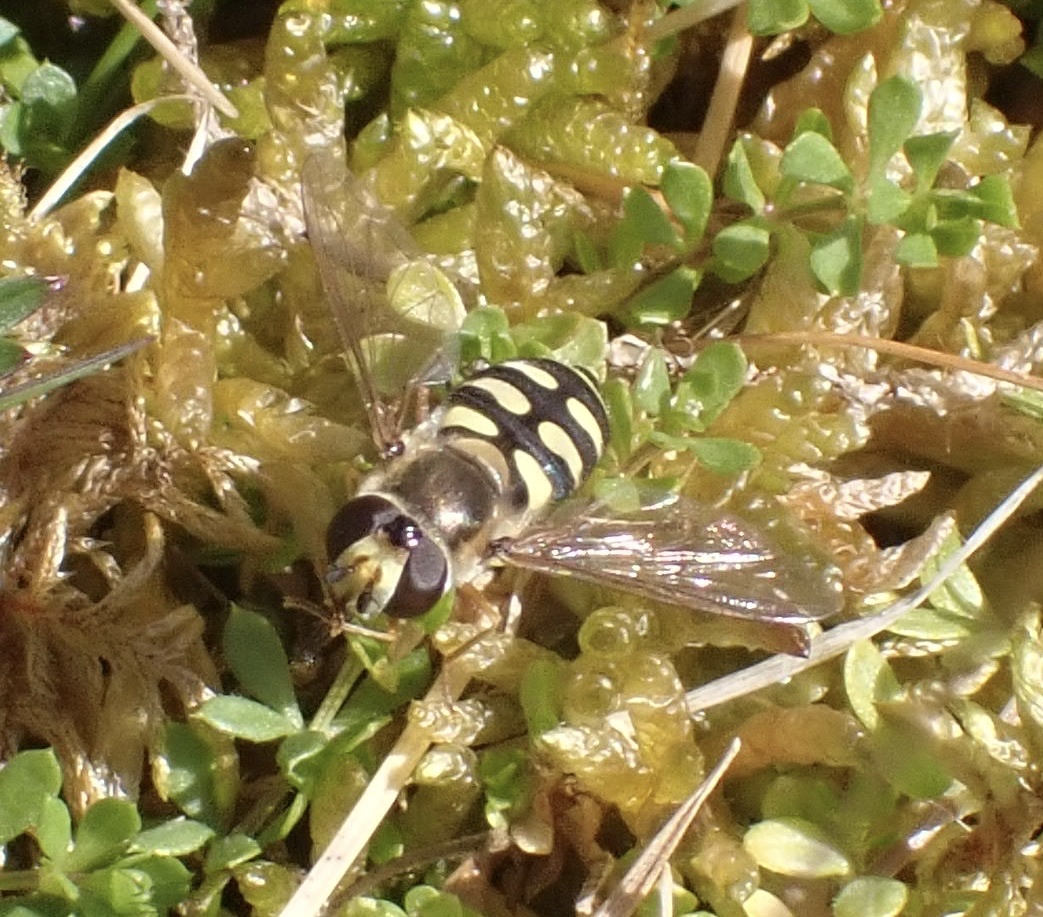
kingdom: Animalia
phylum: Arthropoda
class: Insecta
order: Diptera
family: Syrphidae
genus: Eupeodes
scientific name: Eupeodes corollae
